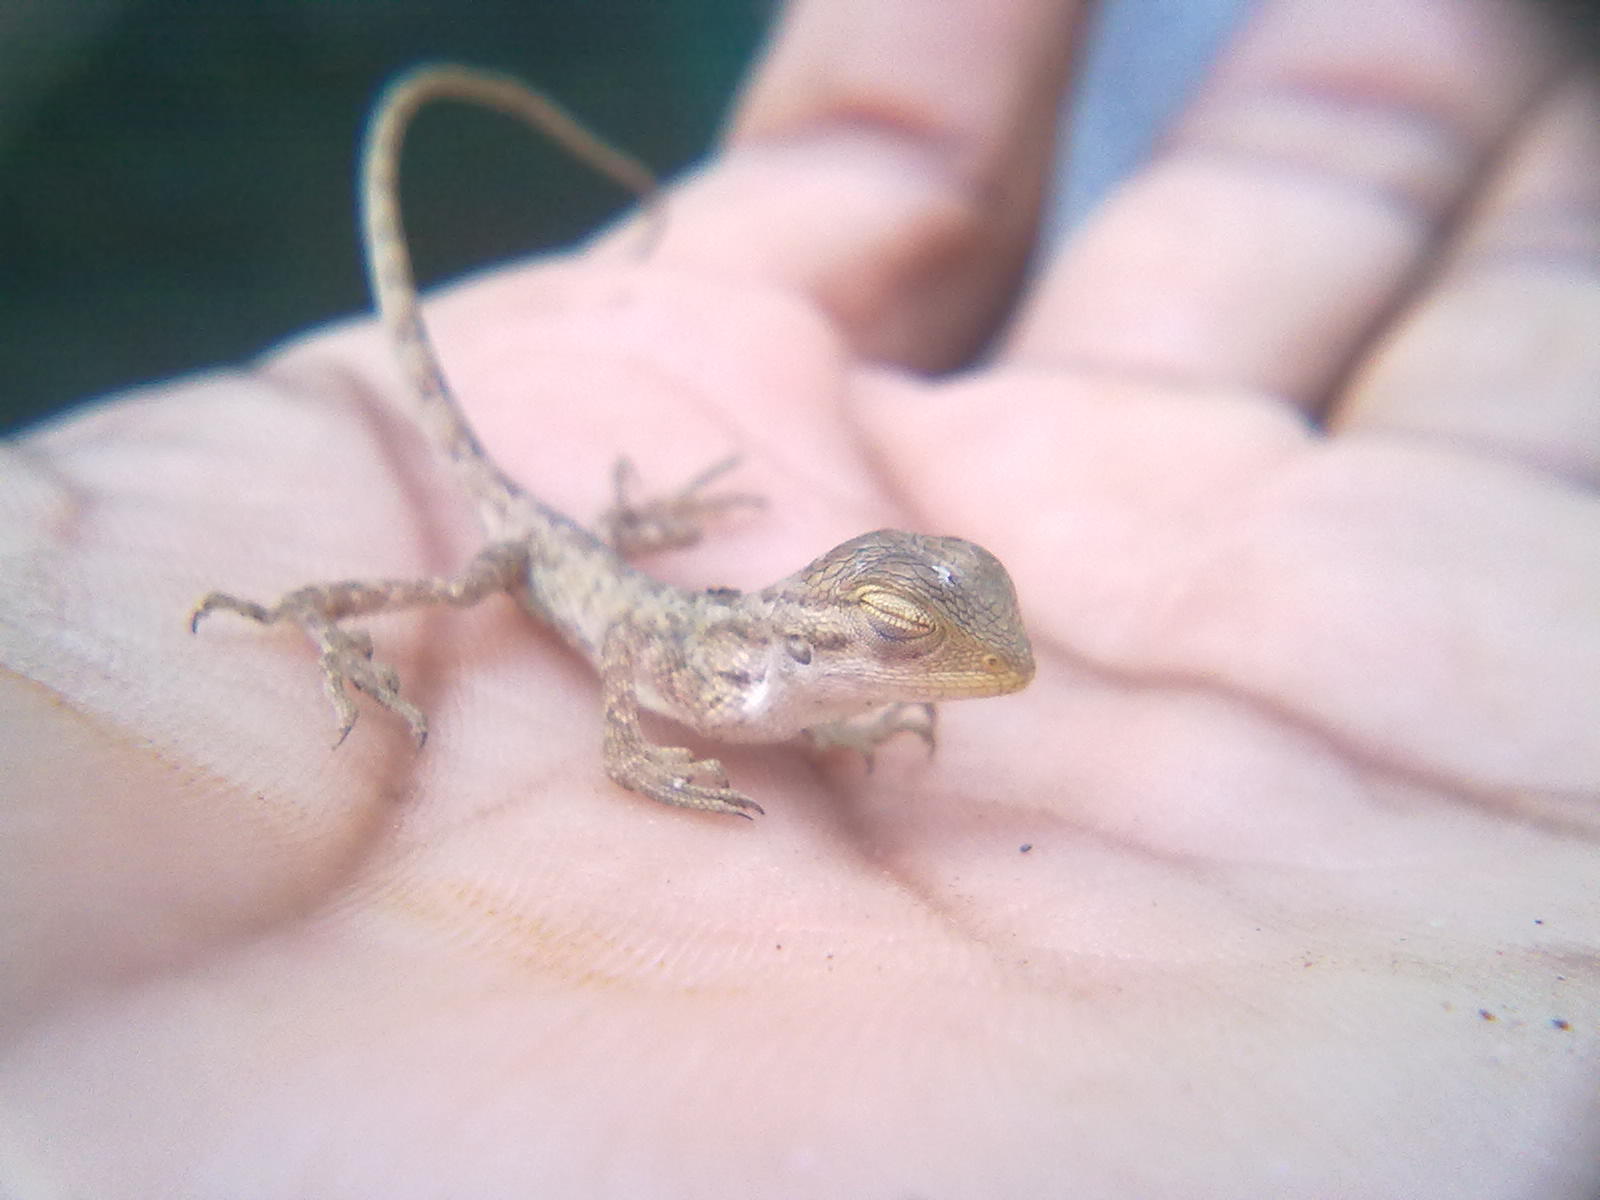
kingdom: Animalia
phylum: Chordata
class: Squamata
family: Agamidae
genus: Calotes
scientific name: Calotes versicolor
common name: Oriental garden lizard
